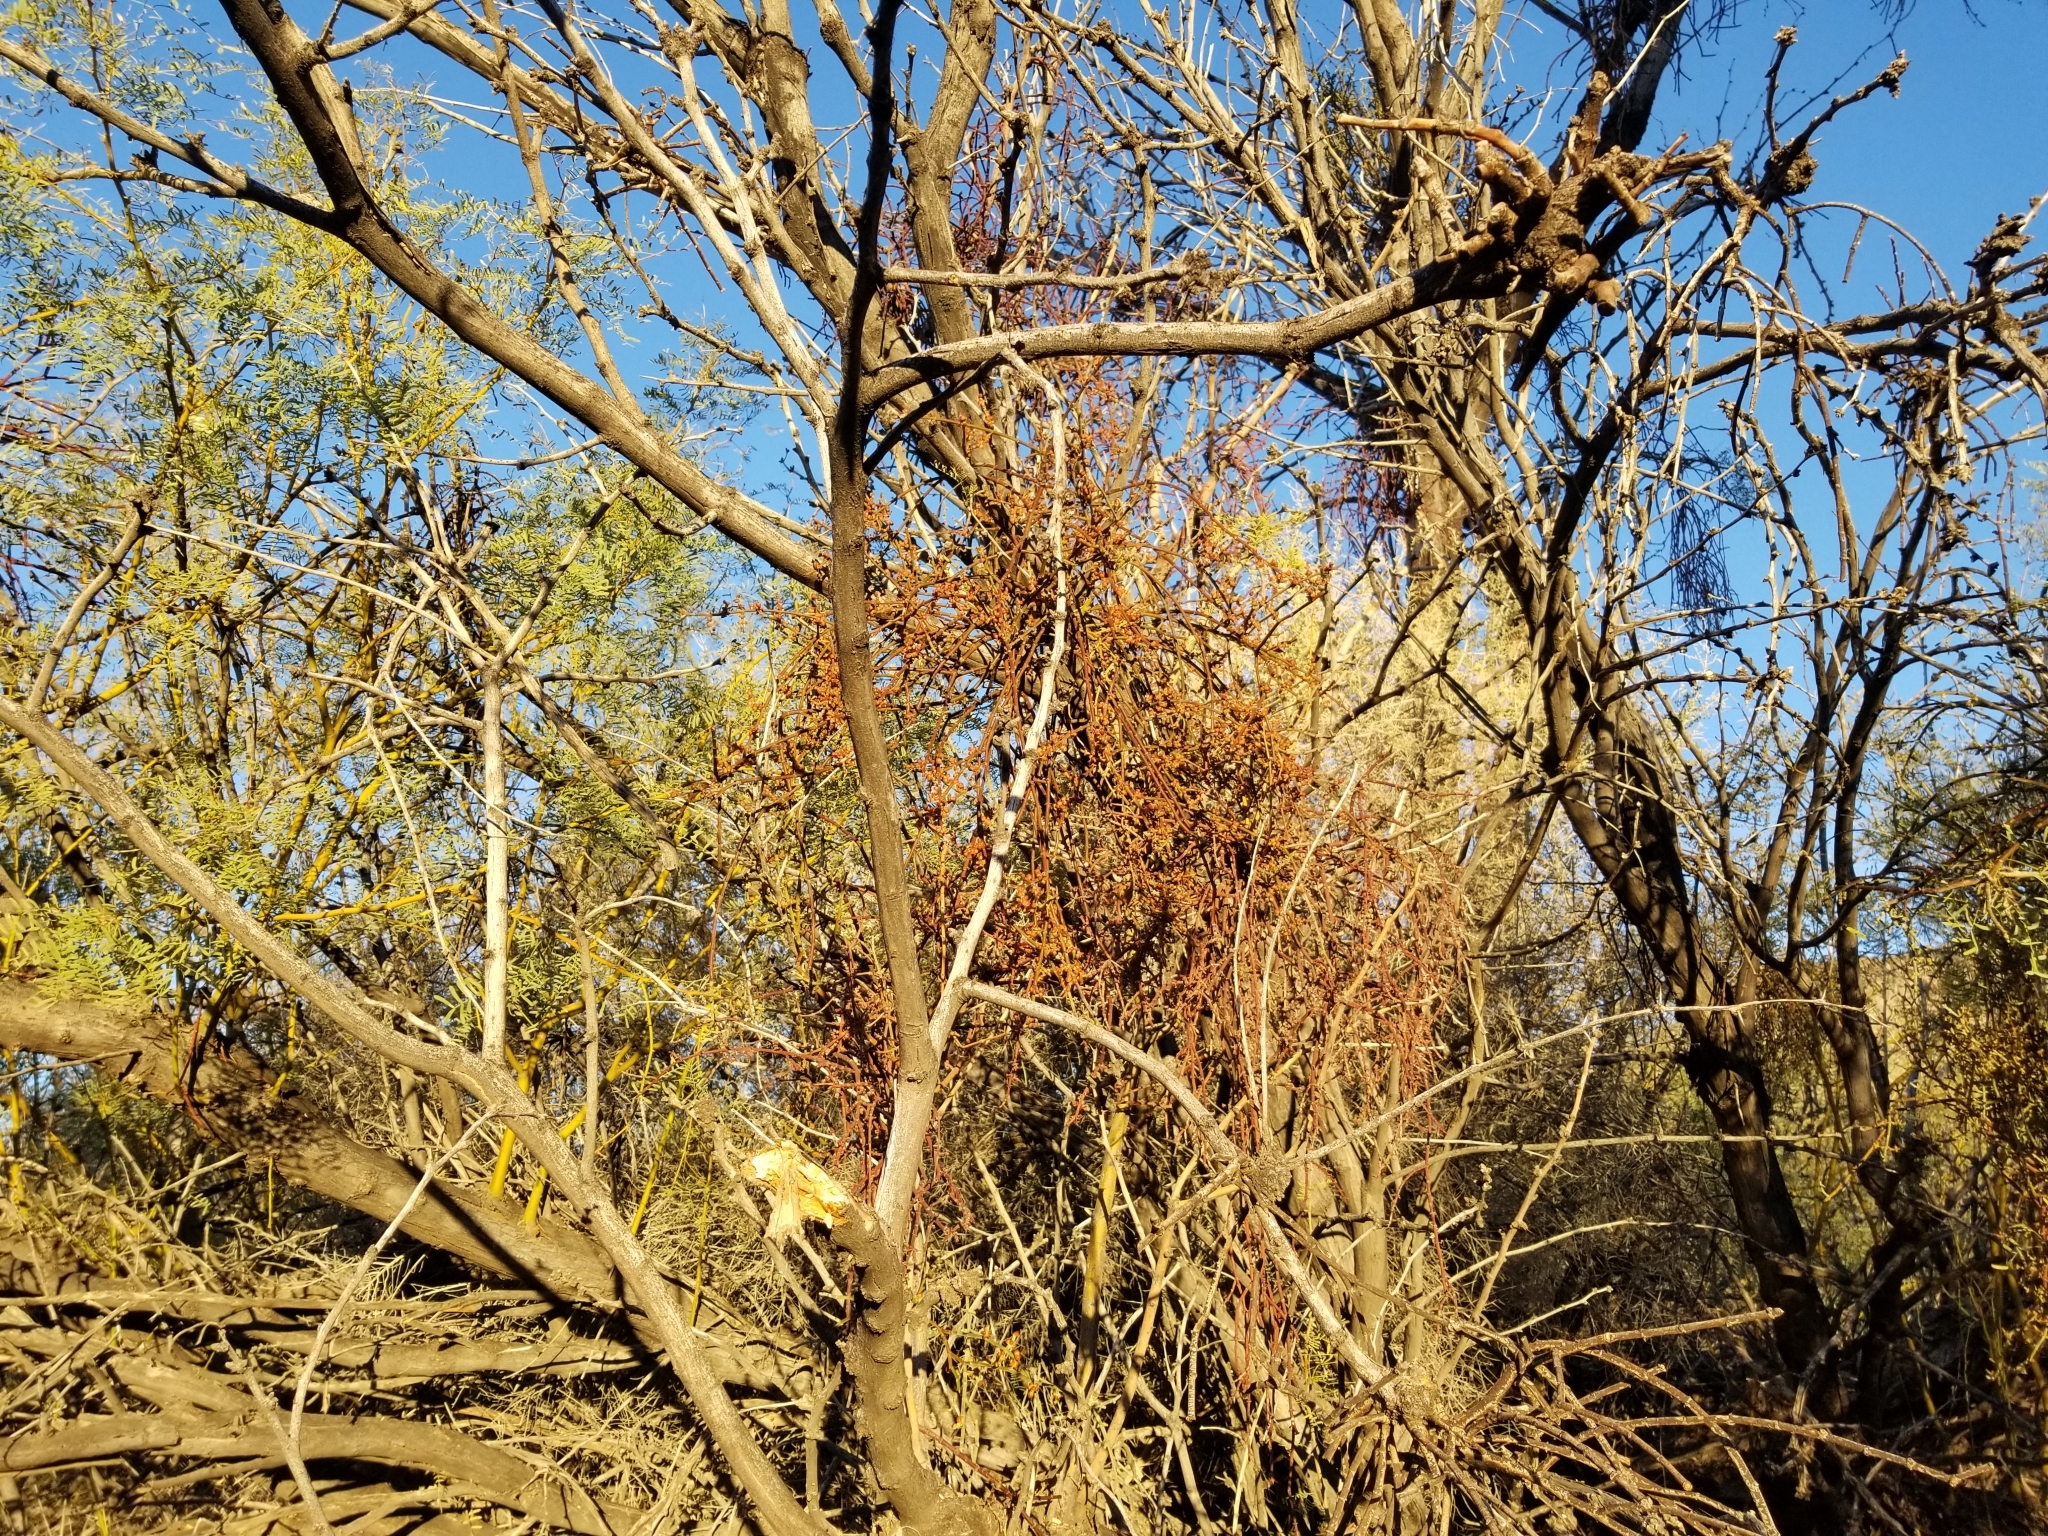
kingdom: Plantae
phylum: Tracheophyta
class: Magnoliopsida
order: Santalales
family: Viscaceae
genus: Phoradendron
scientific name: Phoradendron californicum
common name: Acacia mistletoe
